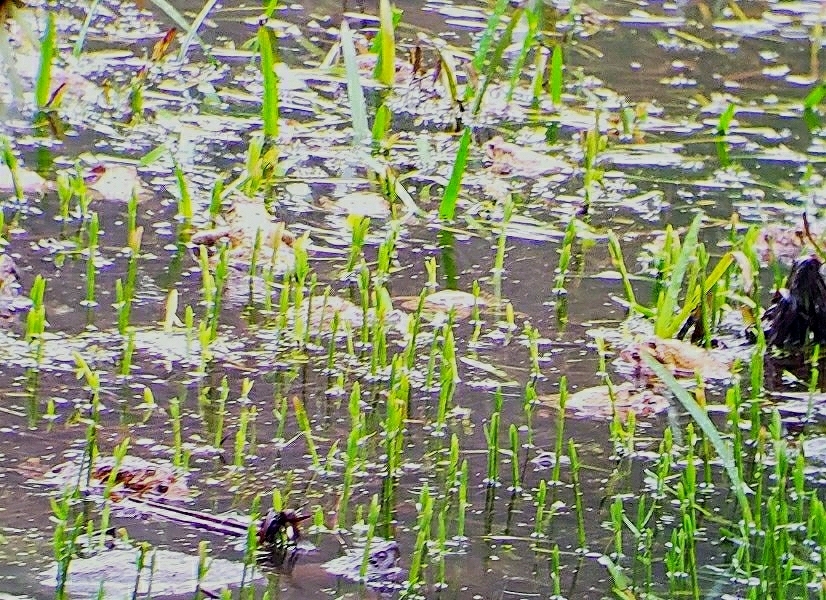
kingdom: Animalia
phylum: Chordata
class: Amphibia
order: Anura
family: Bufonidae
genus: Anaxyrus
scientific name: Anaxyrus americanus
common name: American toad
